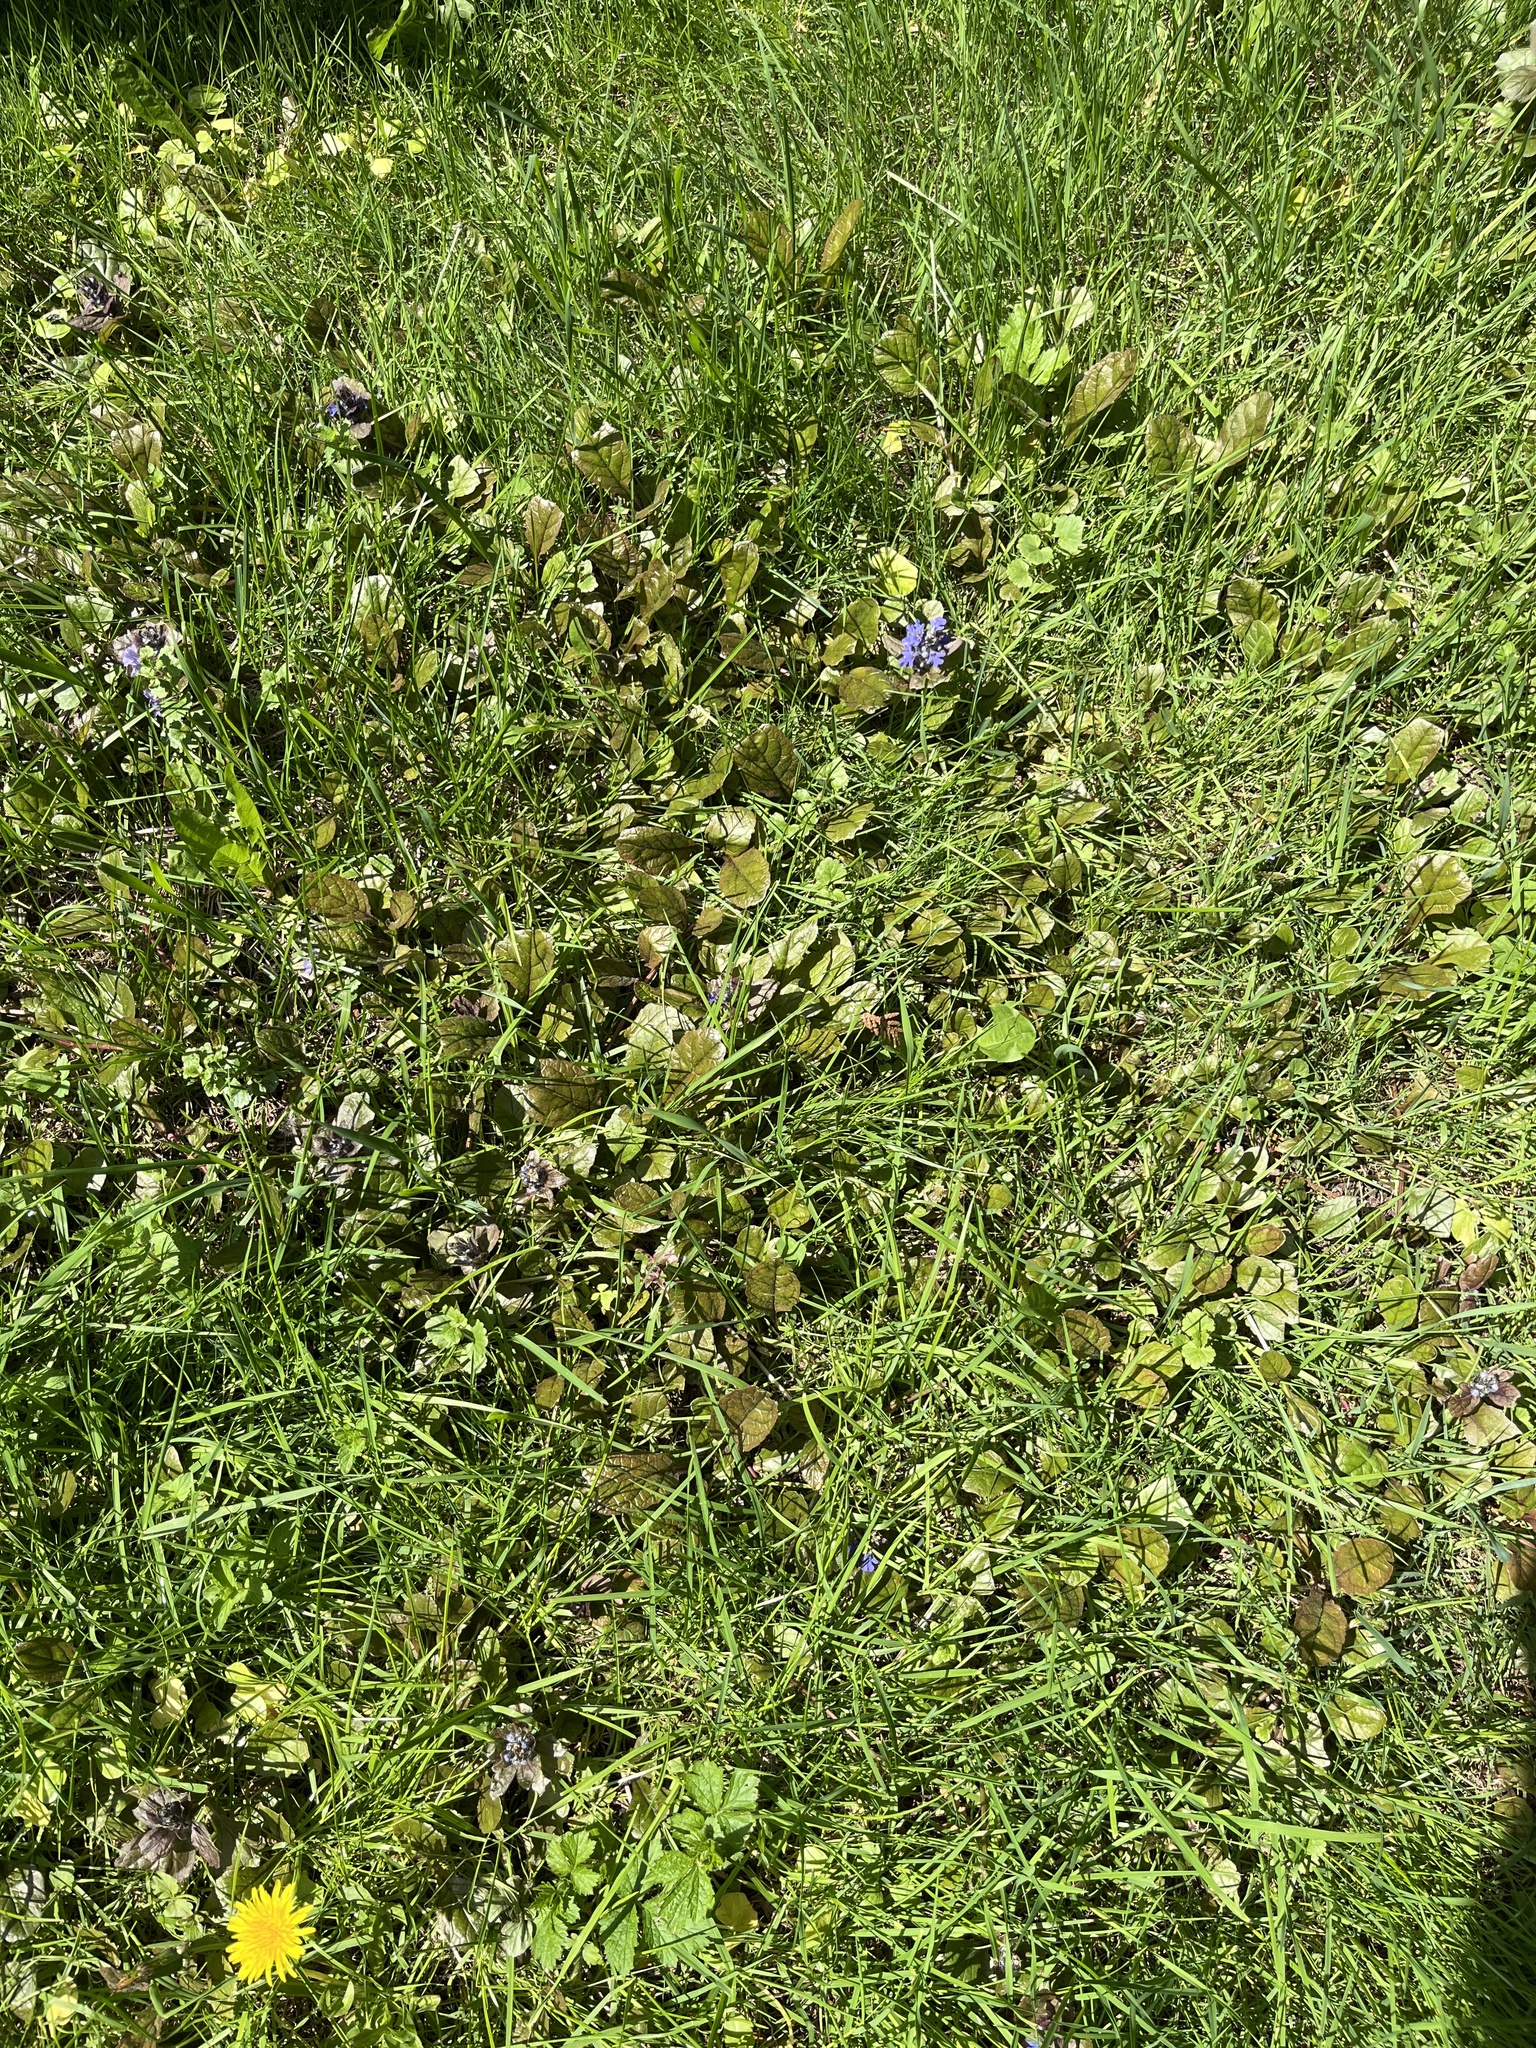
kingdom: Plantae
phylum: Tracheophyta
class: Magnoliopsida
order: Lamiales
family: Lamiaceae
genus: Ajuga
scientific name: Ajuga reptans
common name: Bugle
